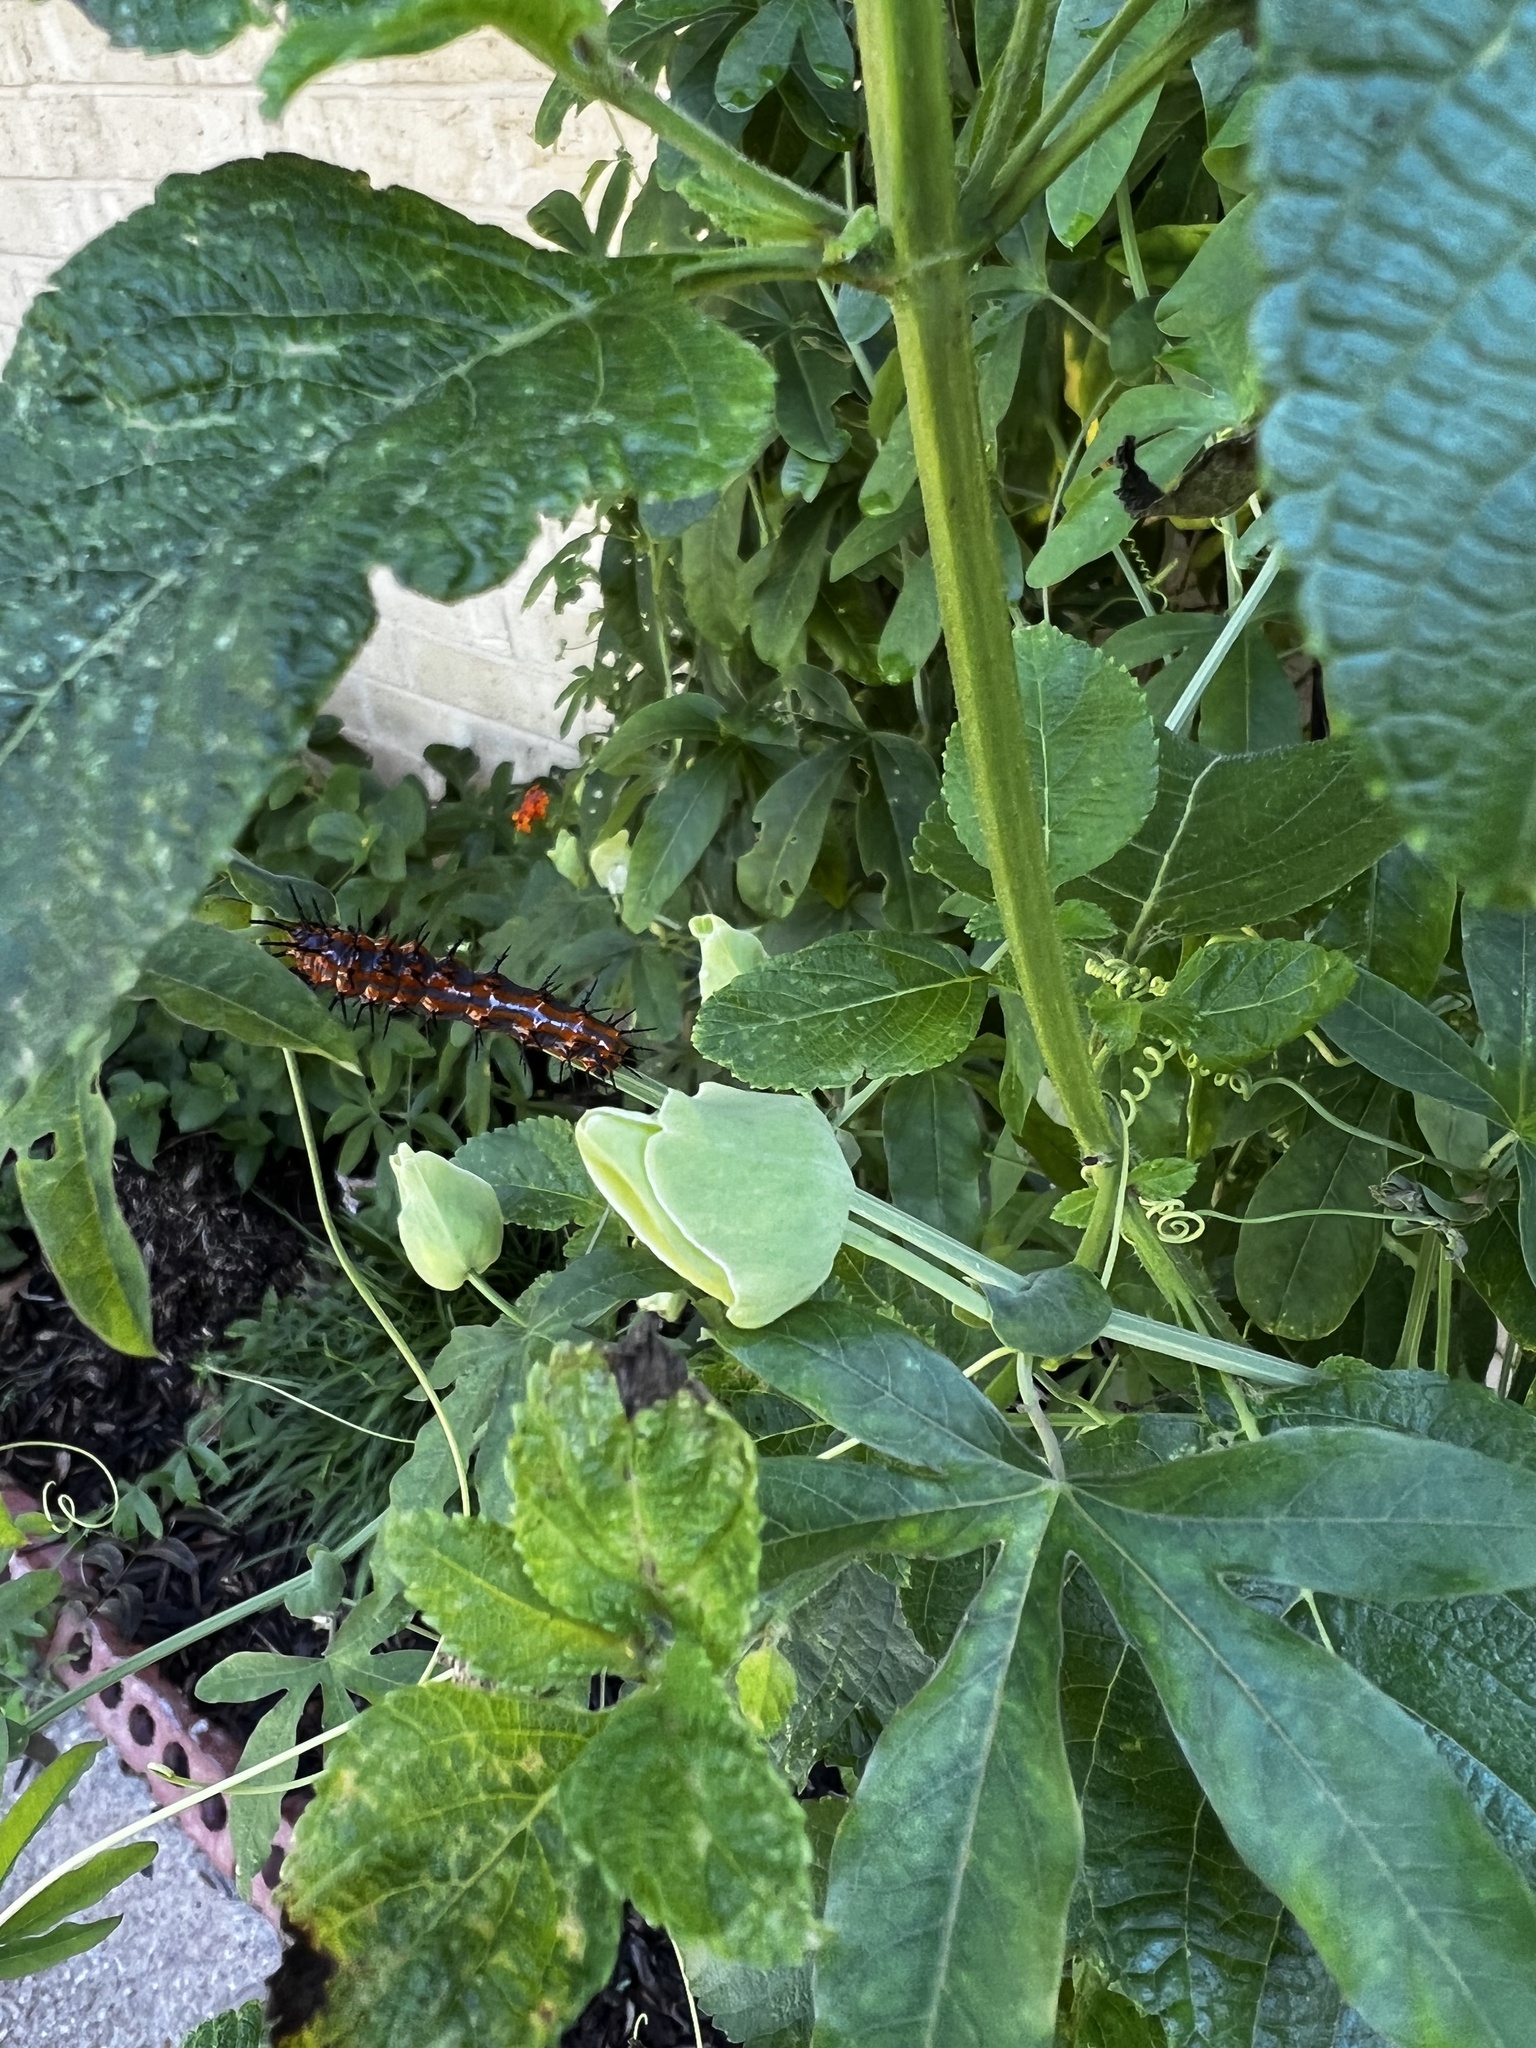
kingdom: Animalia
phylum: Arthropoda
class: Insecta
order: Lepidoptera
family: Nymphalidae
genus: Dione
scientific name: Dione vanillae
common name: Gulf fritillary
